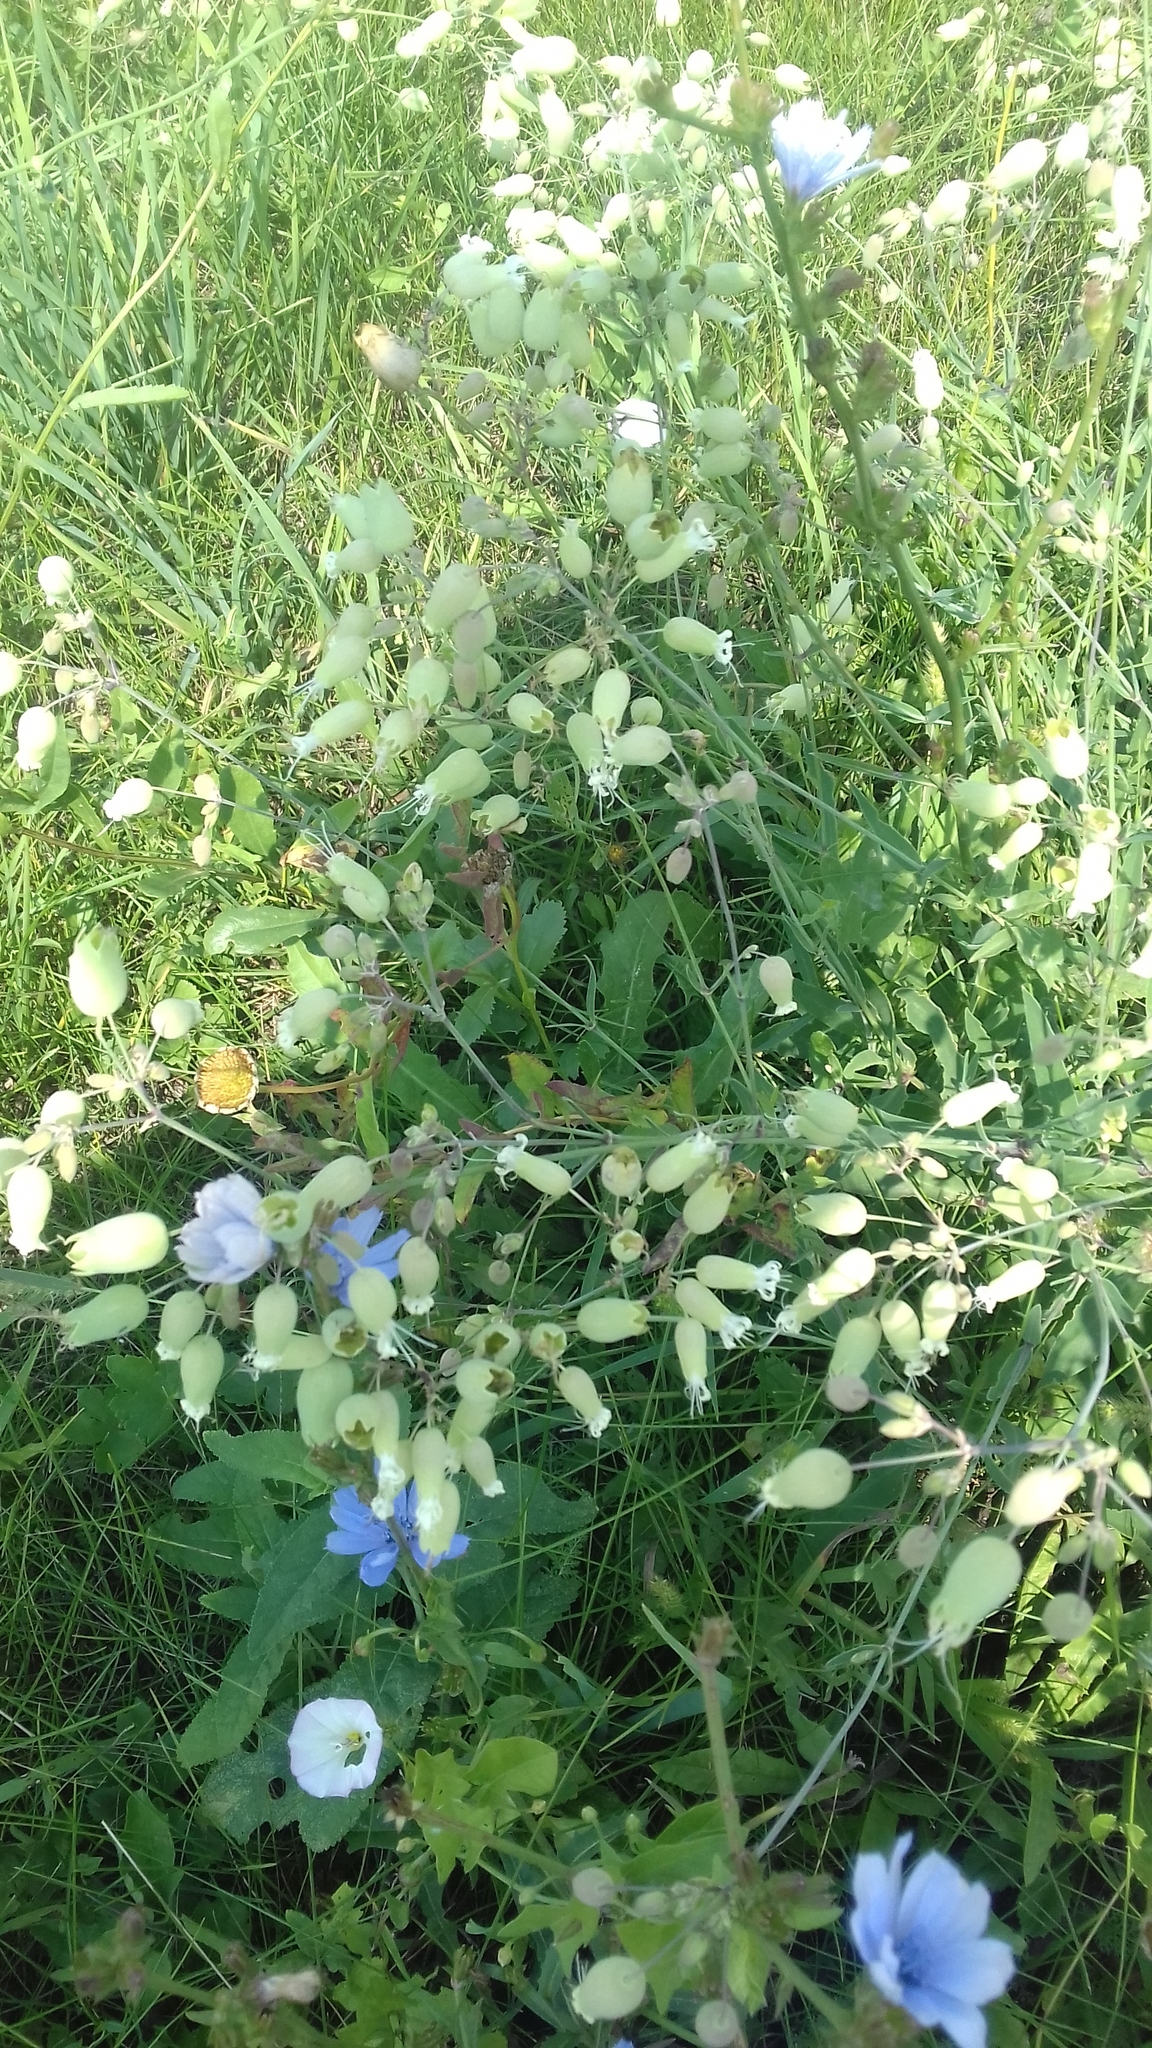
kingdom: Plantae
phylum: Tracheophyta
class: Magnoliopsida
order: Caryophyllales
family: Caryophyllaceae
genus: Silene
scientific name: Silene vulgaris
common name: Bladder campion
